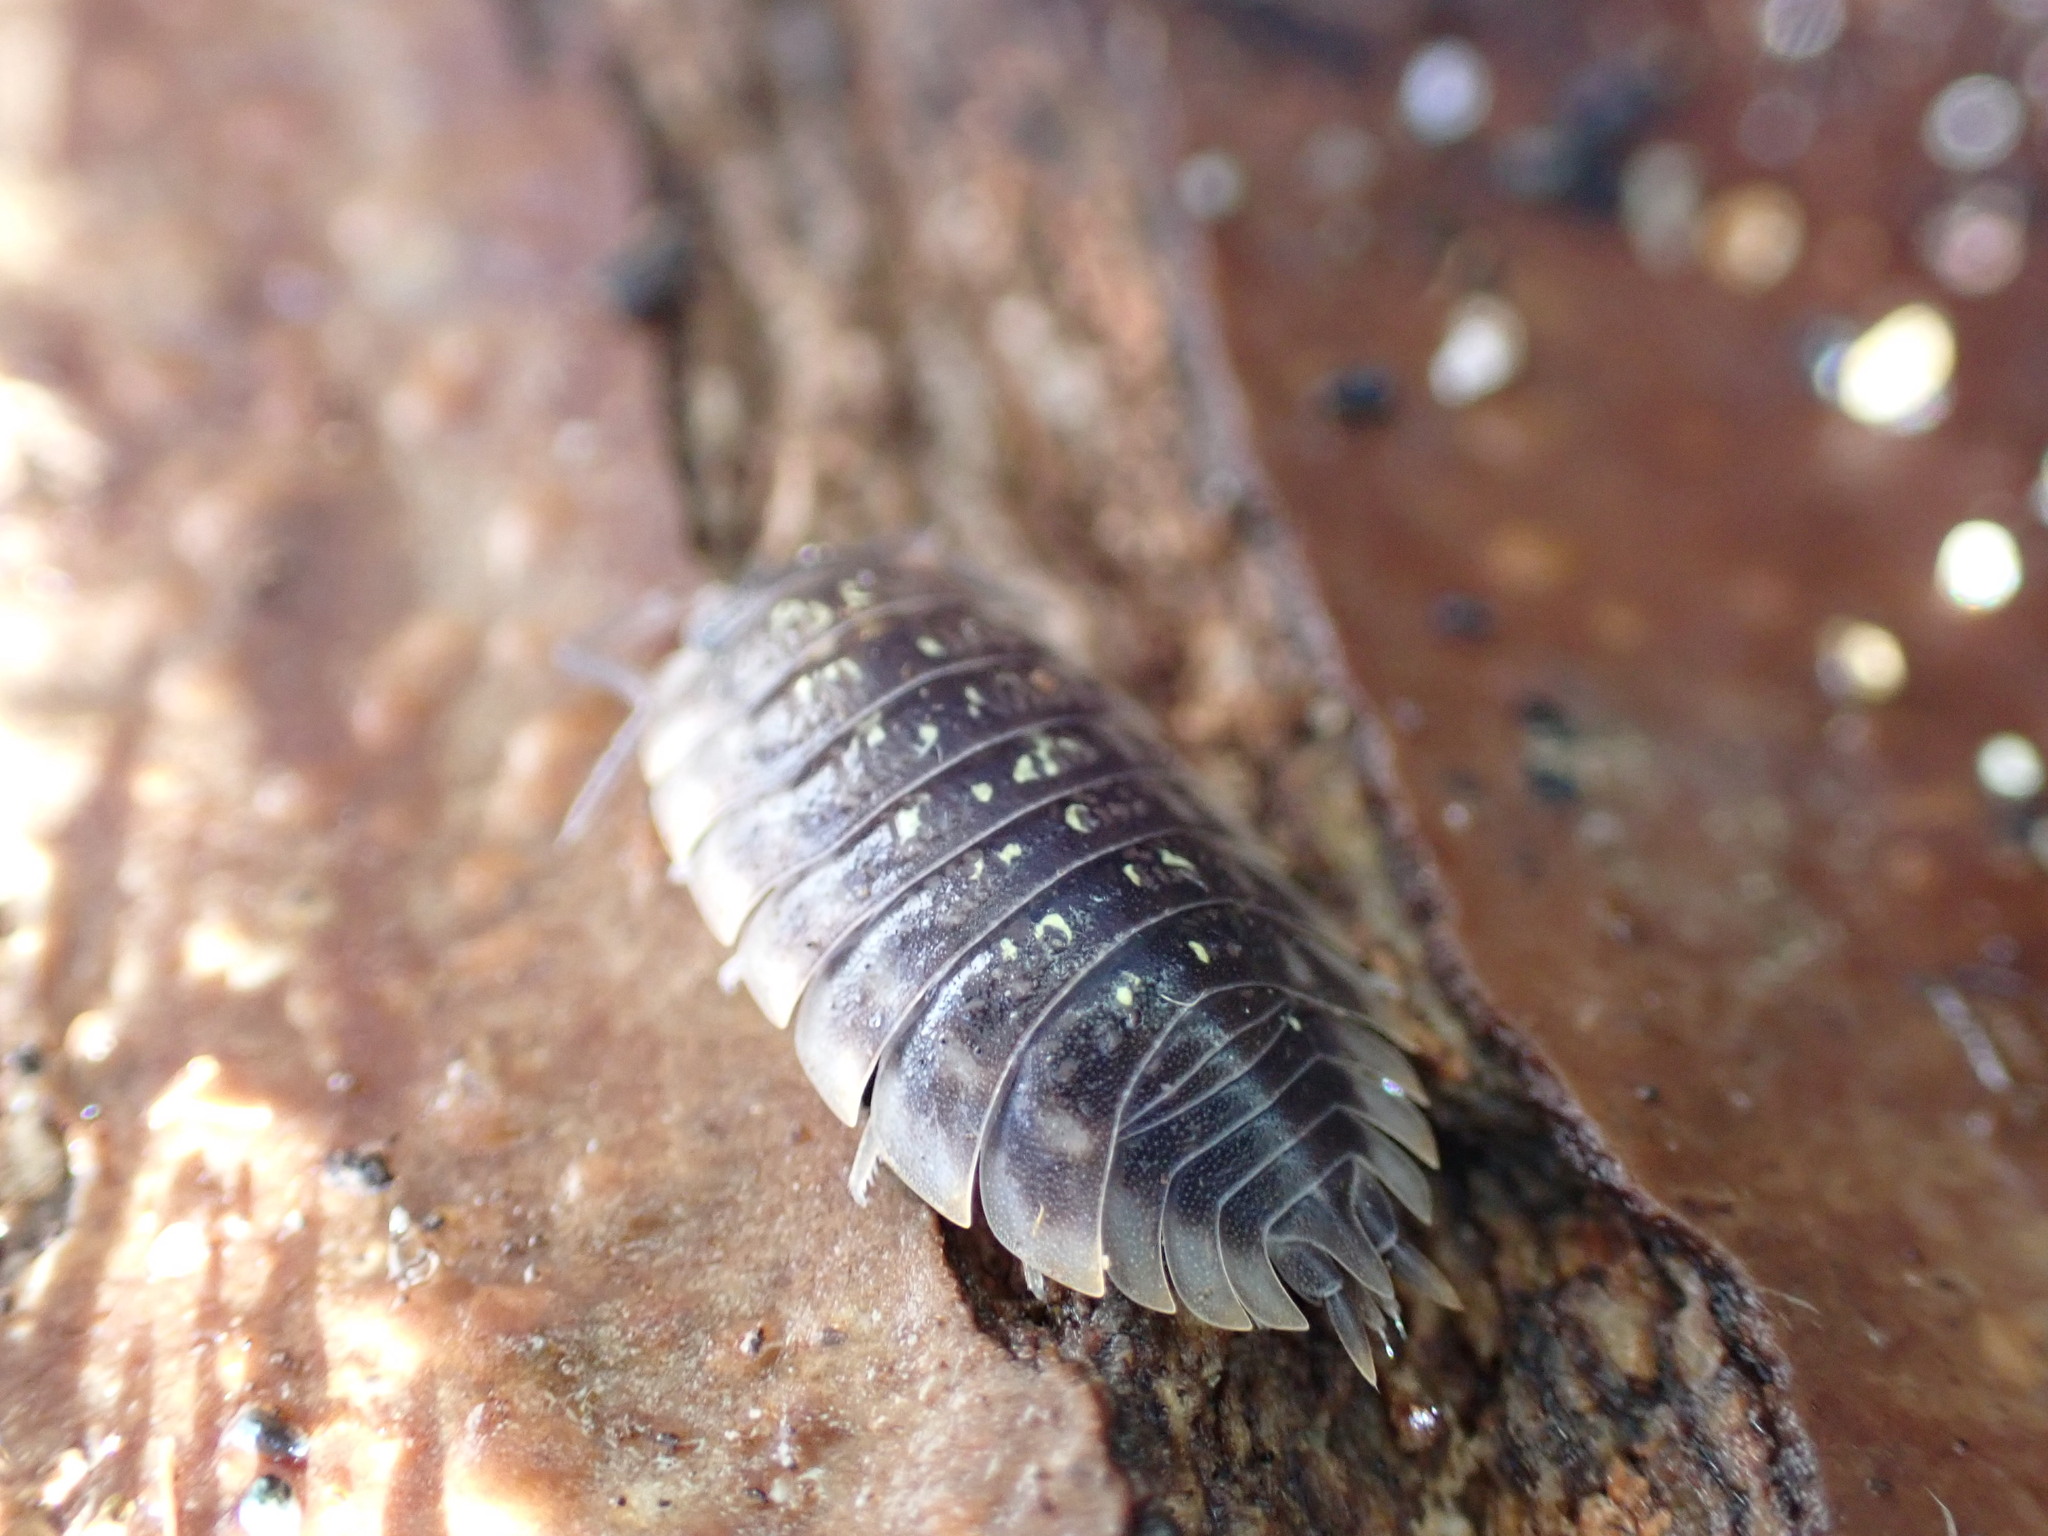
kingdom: Animalia
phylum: Arthropoda
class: Malacostraca
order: Isopoda
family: Oniscidae
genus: Oniscus
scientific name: Oniscus asellus
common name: Common shiny woodlouse
